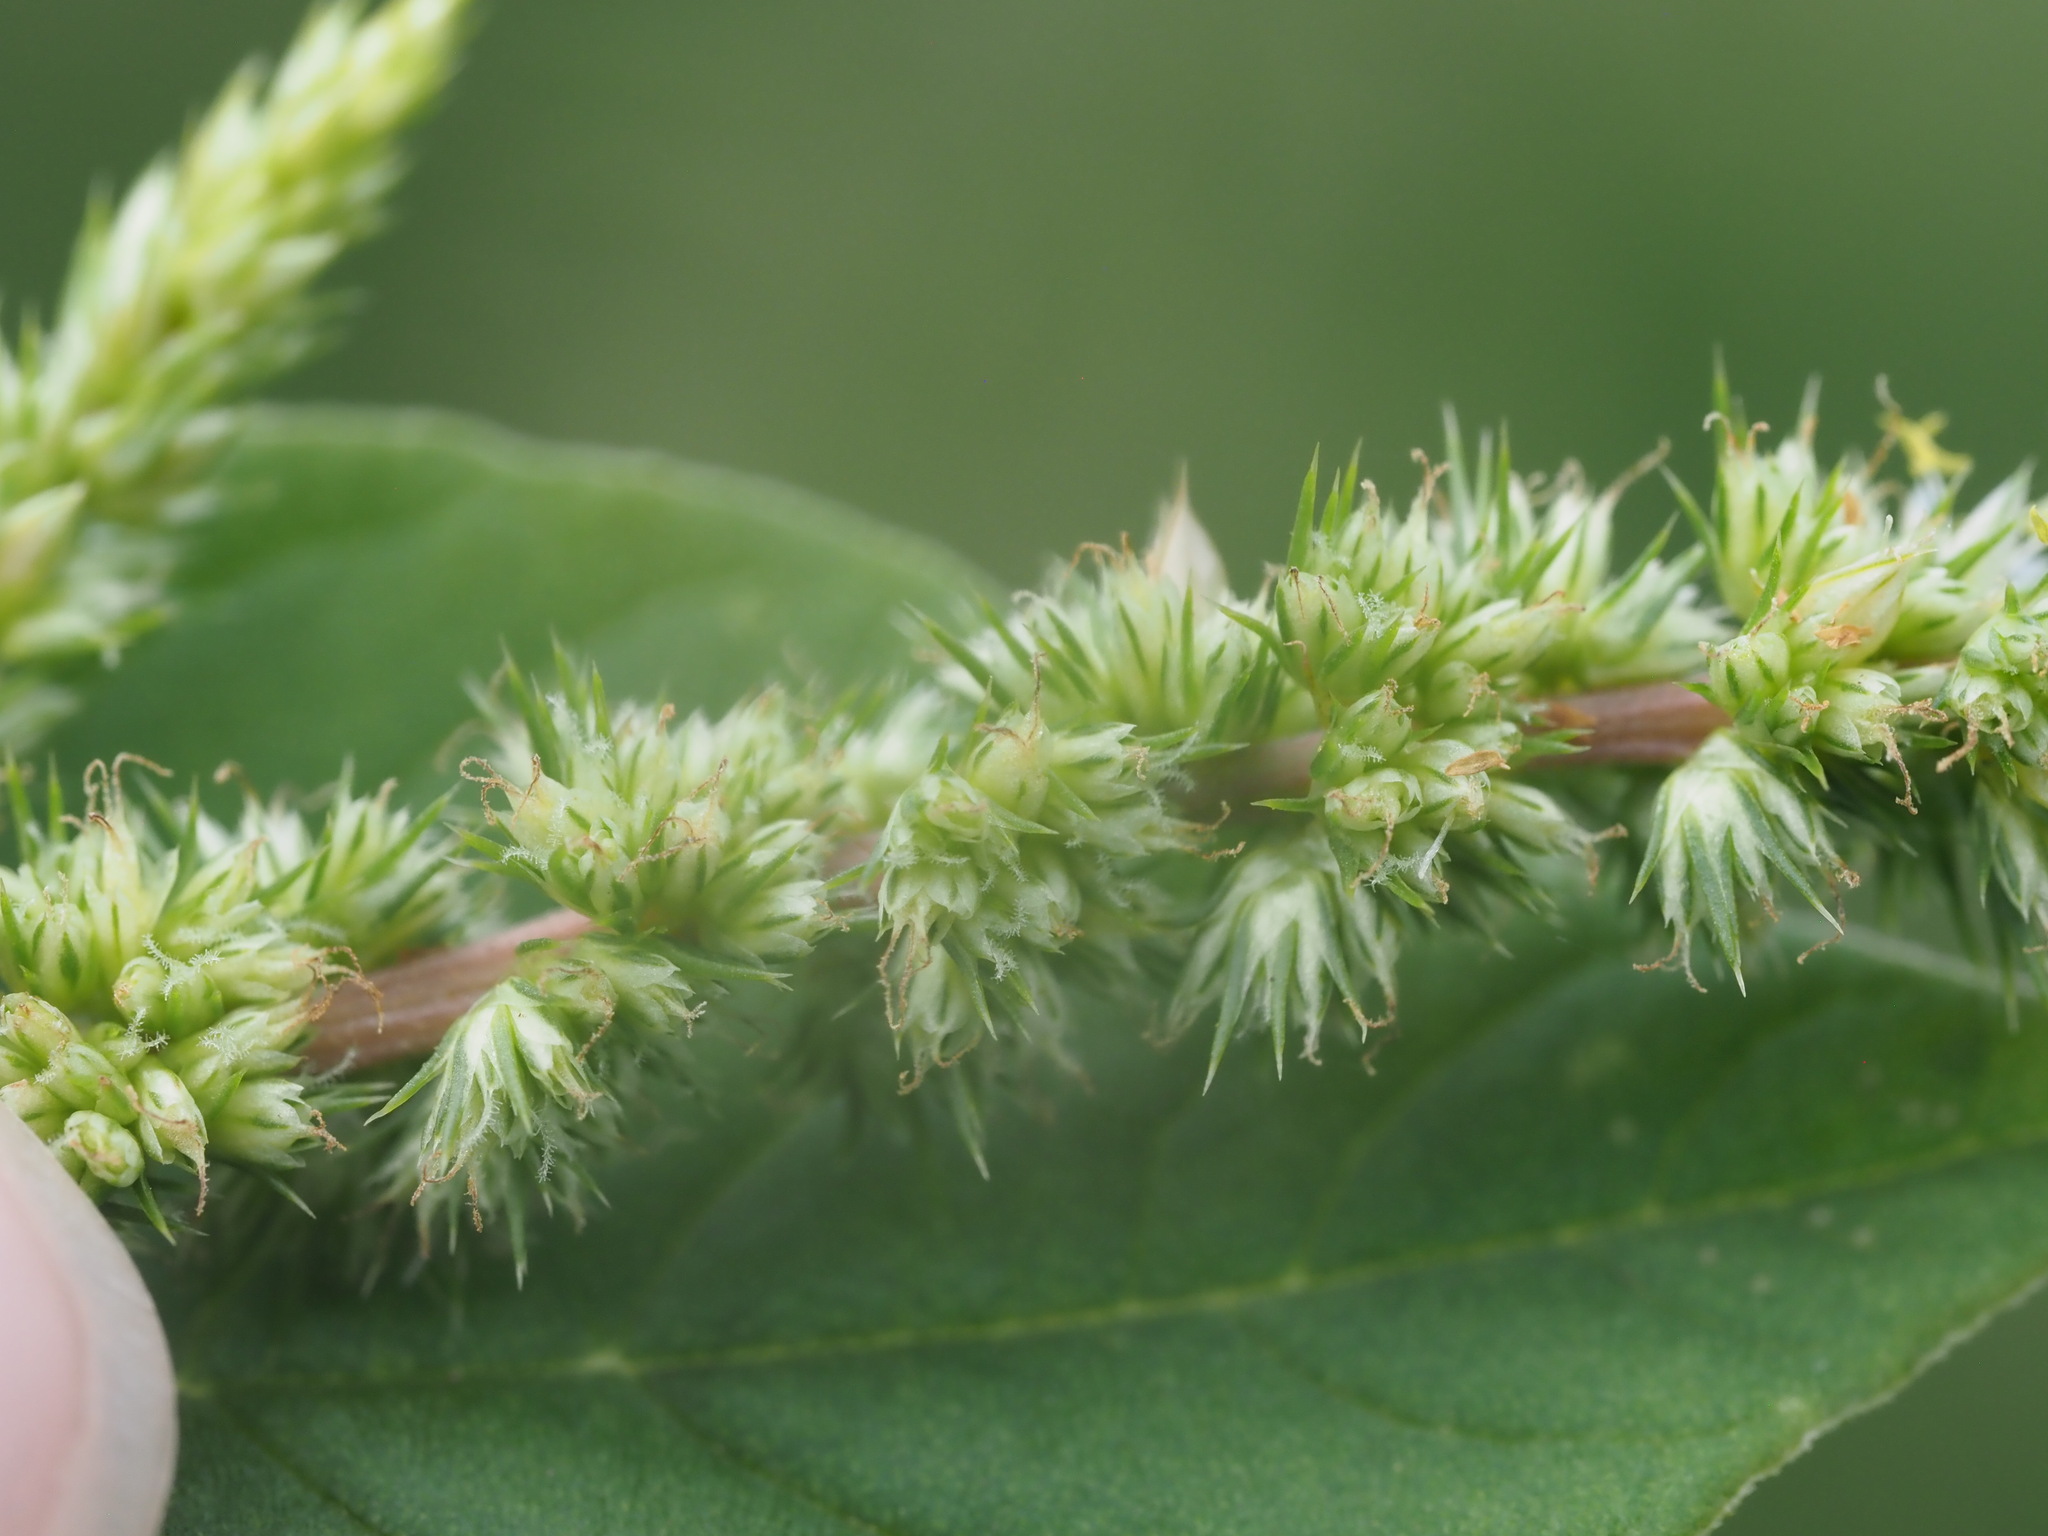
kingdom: Plantae
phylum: Tracheophyta
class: Magnoliopsida
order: Caryophyllales
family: Amaranthaceae
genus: Amaranthus
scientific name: Amaranthus retroflexus
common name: Redroot amaranth
